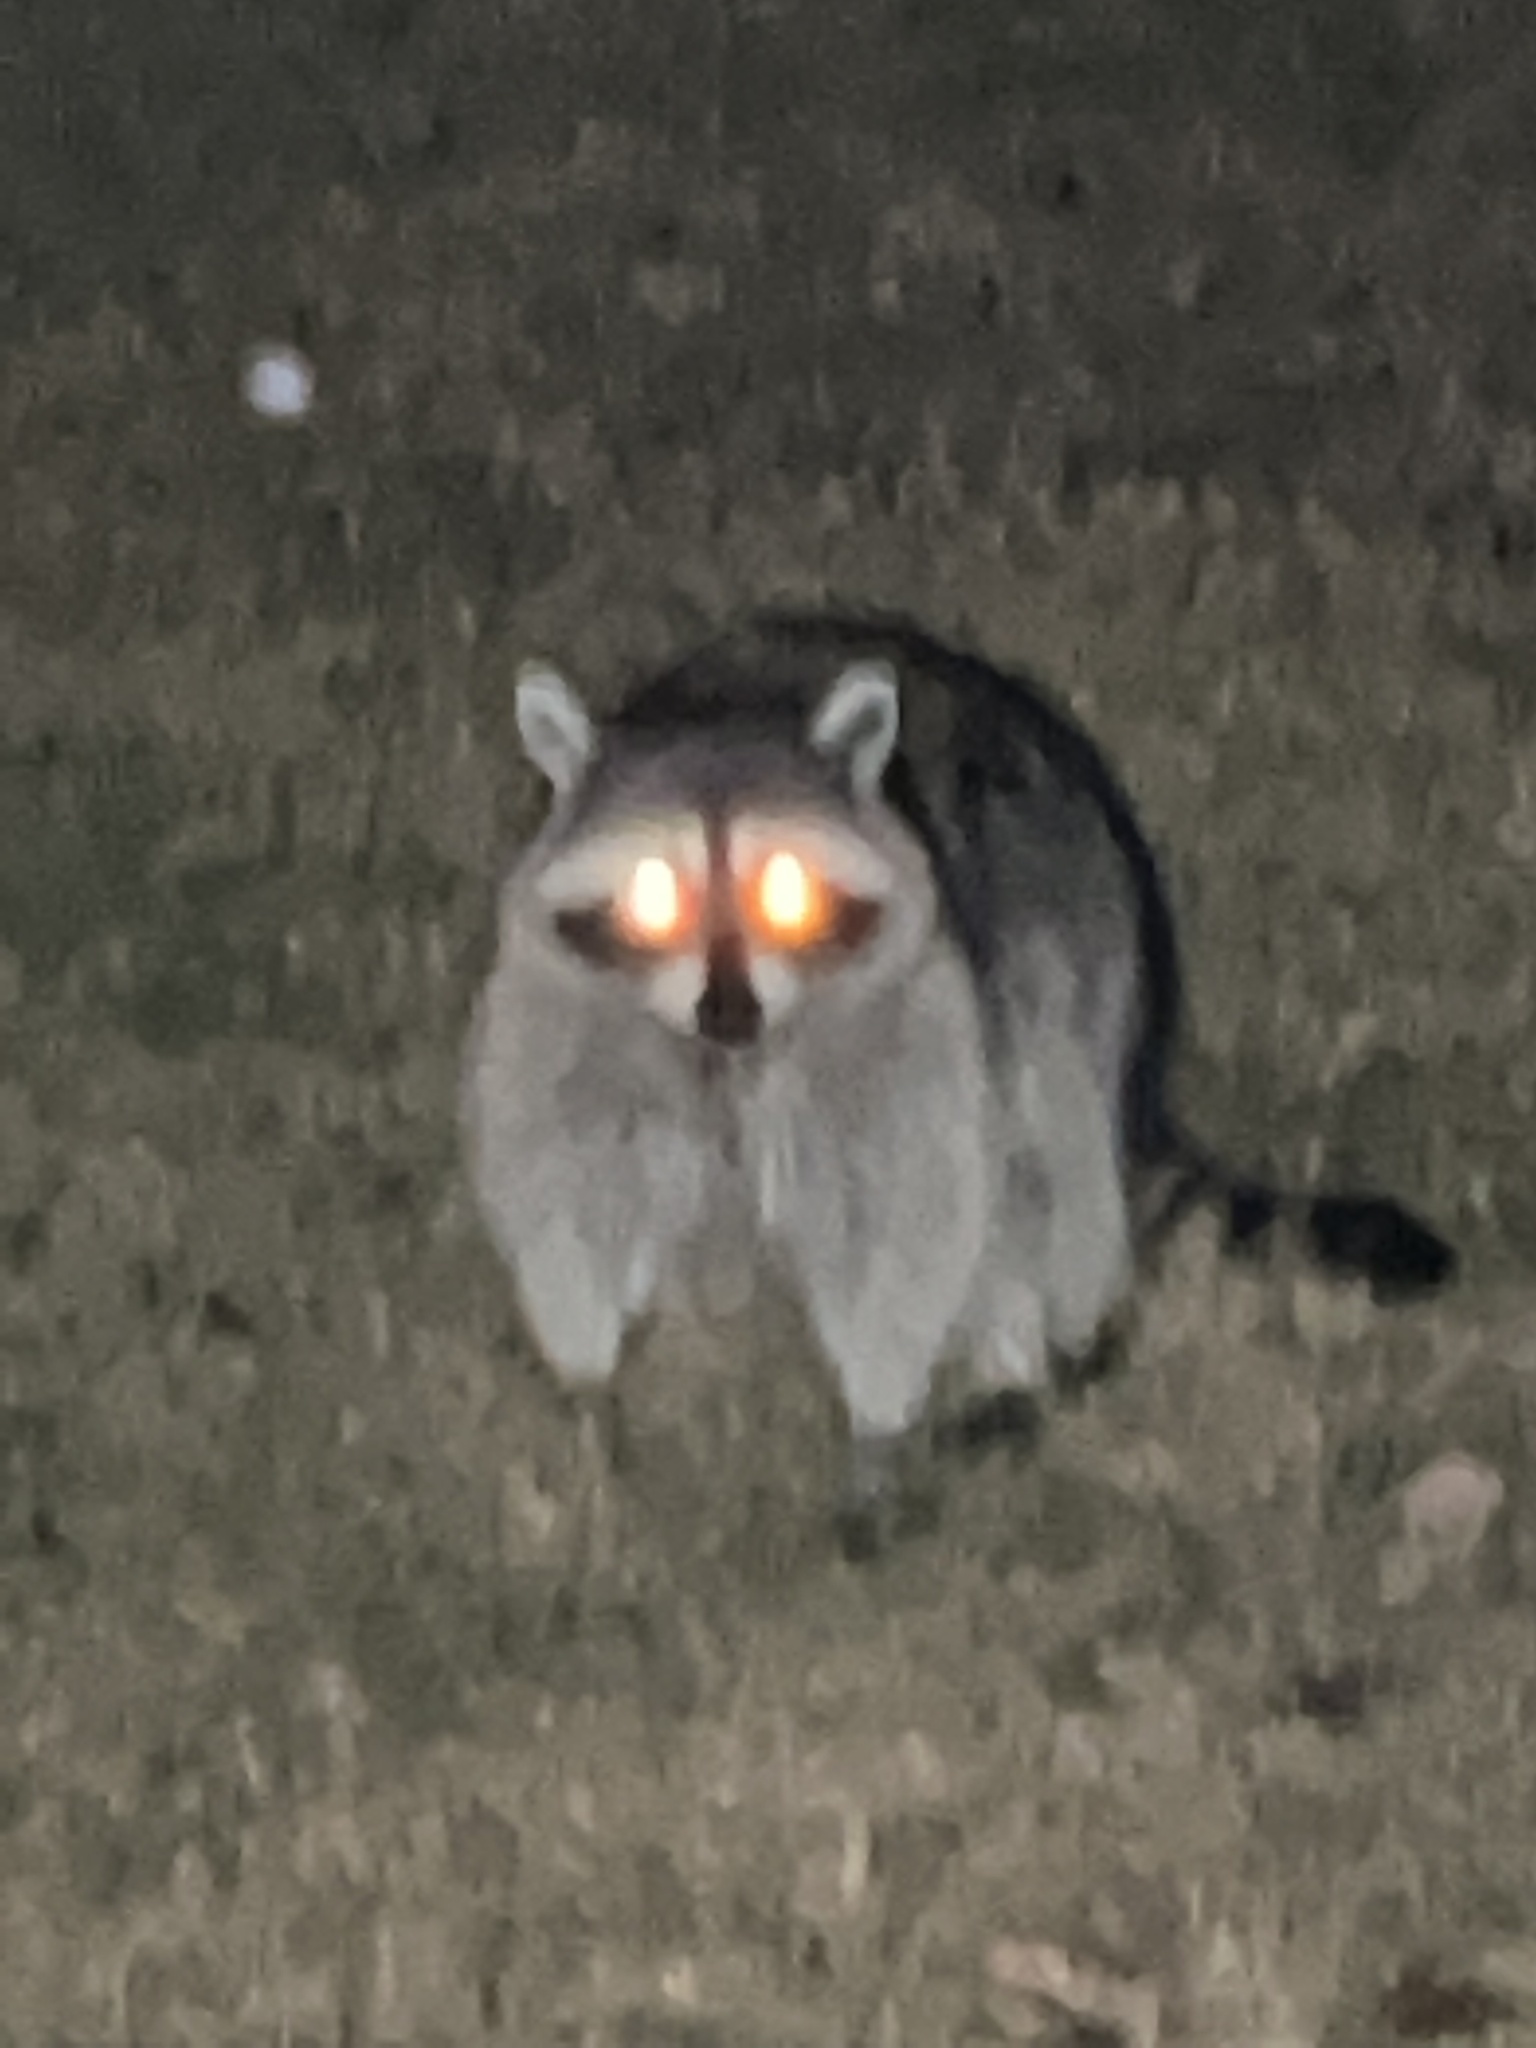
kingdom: Animalia
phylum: Chordata
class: Mammalia
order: Carnivora
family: Procyonidae
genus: Procyon
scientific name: Procyon lotor
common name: Raccoon
